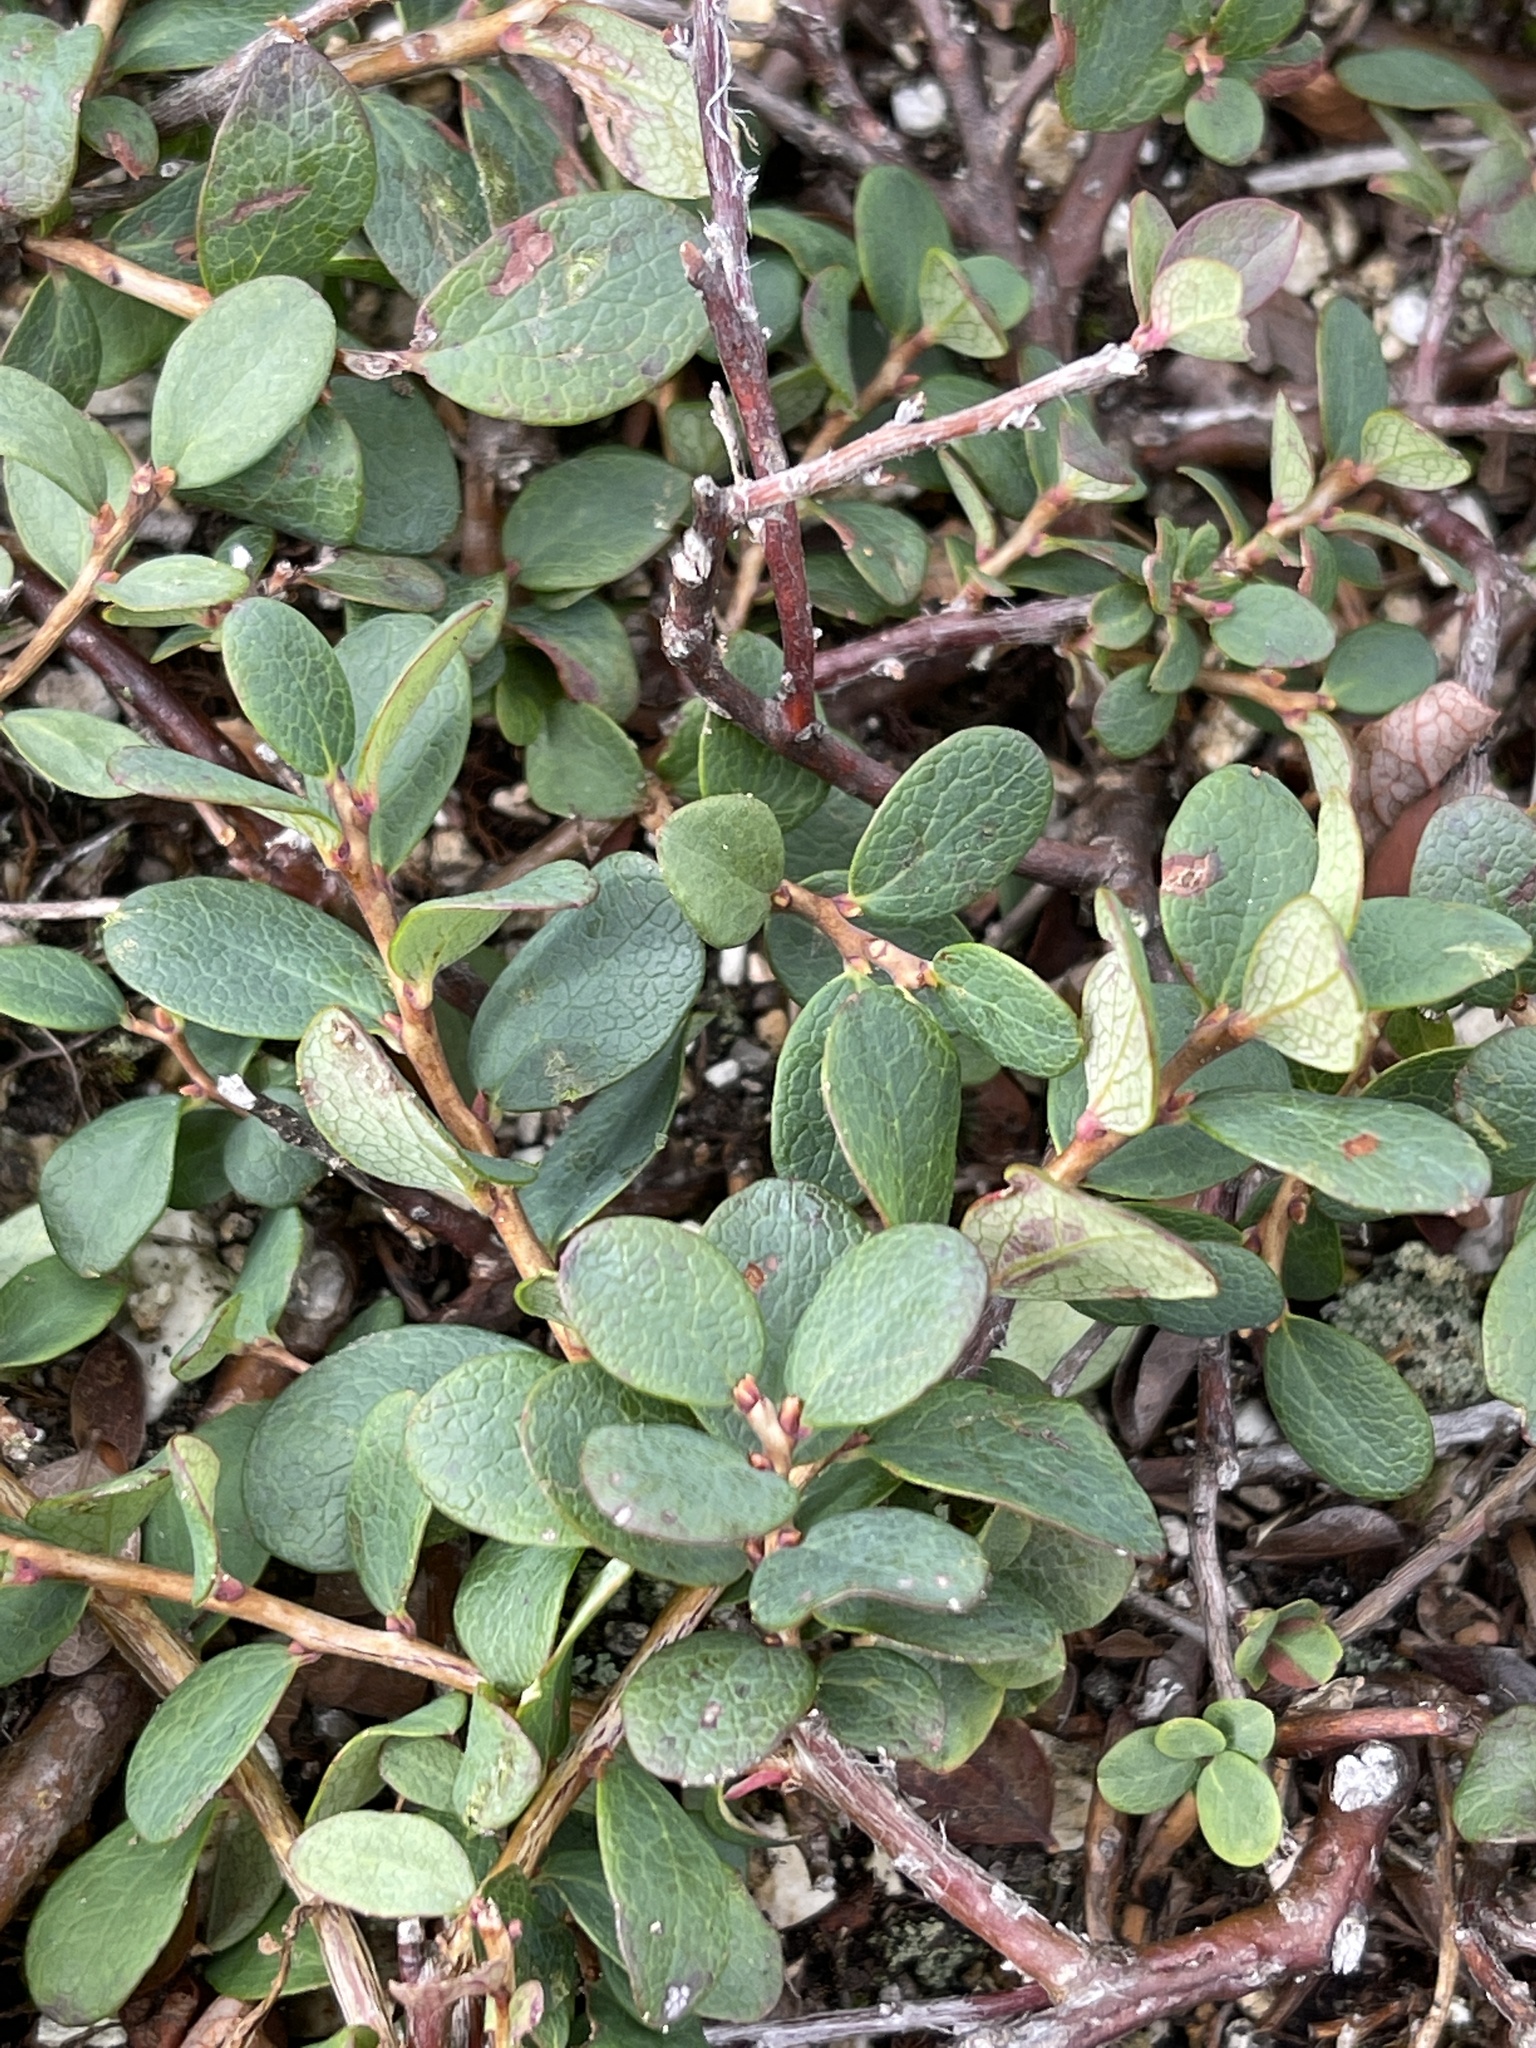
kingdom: Plantae
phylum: Tracheophyta
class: Magnoliopsida
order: Ericales
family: Ericaceae
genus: Vaccinium
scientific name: Vaccinium uliginosum
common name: Bog bilberry
